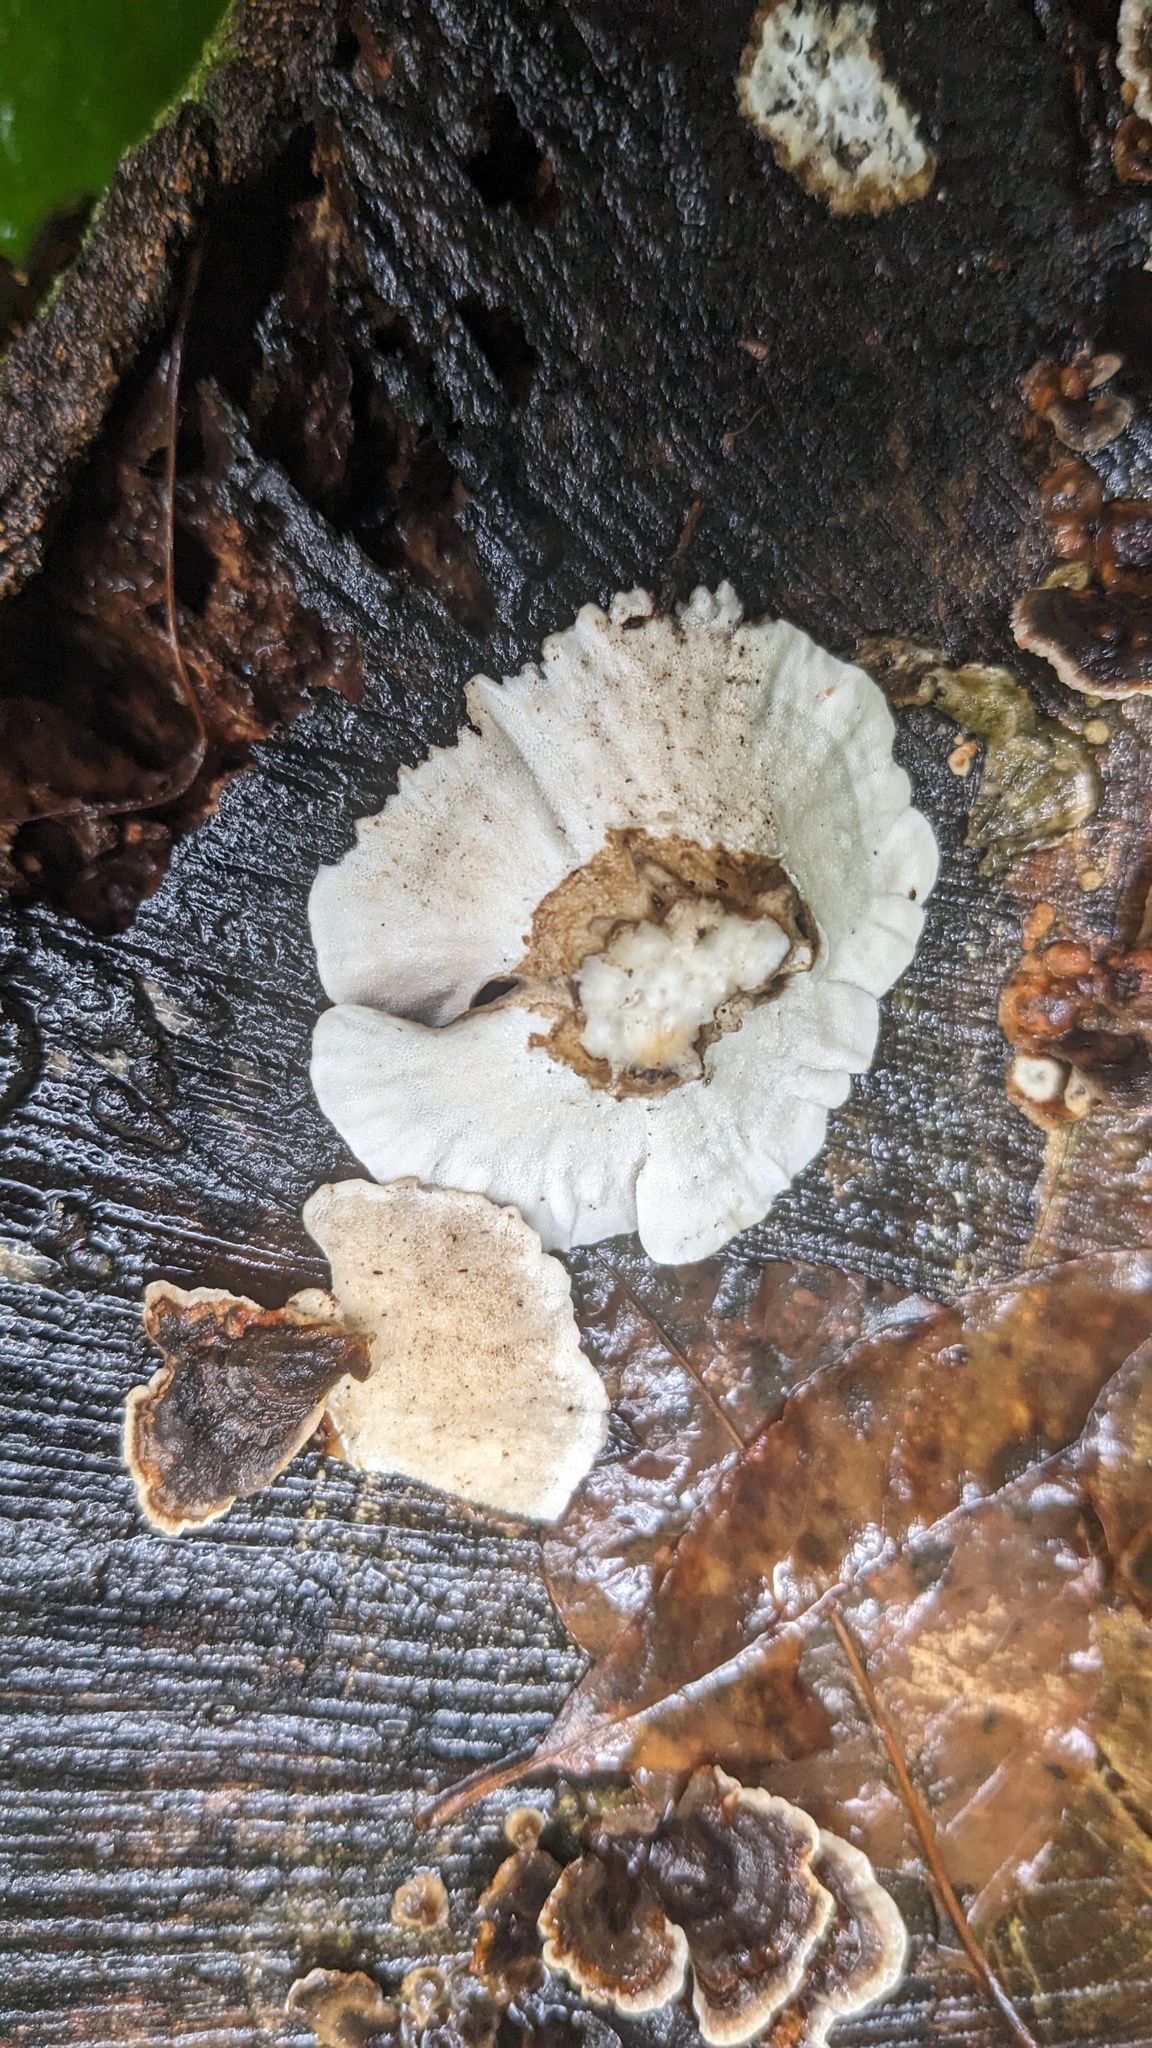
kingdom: Fungi
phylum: Basidiomycota
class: Agaricomycetes
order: Polyporales
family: Polyporaceae
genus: Trametes
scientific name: Trametes versicolor
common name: Turkeytail
